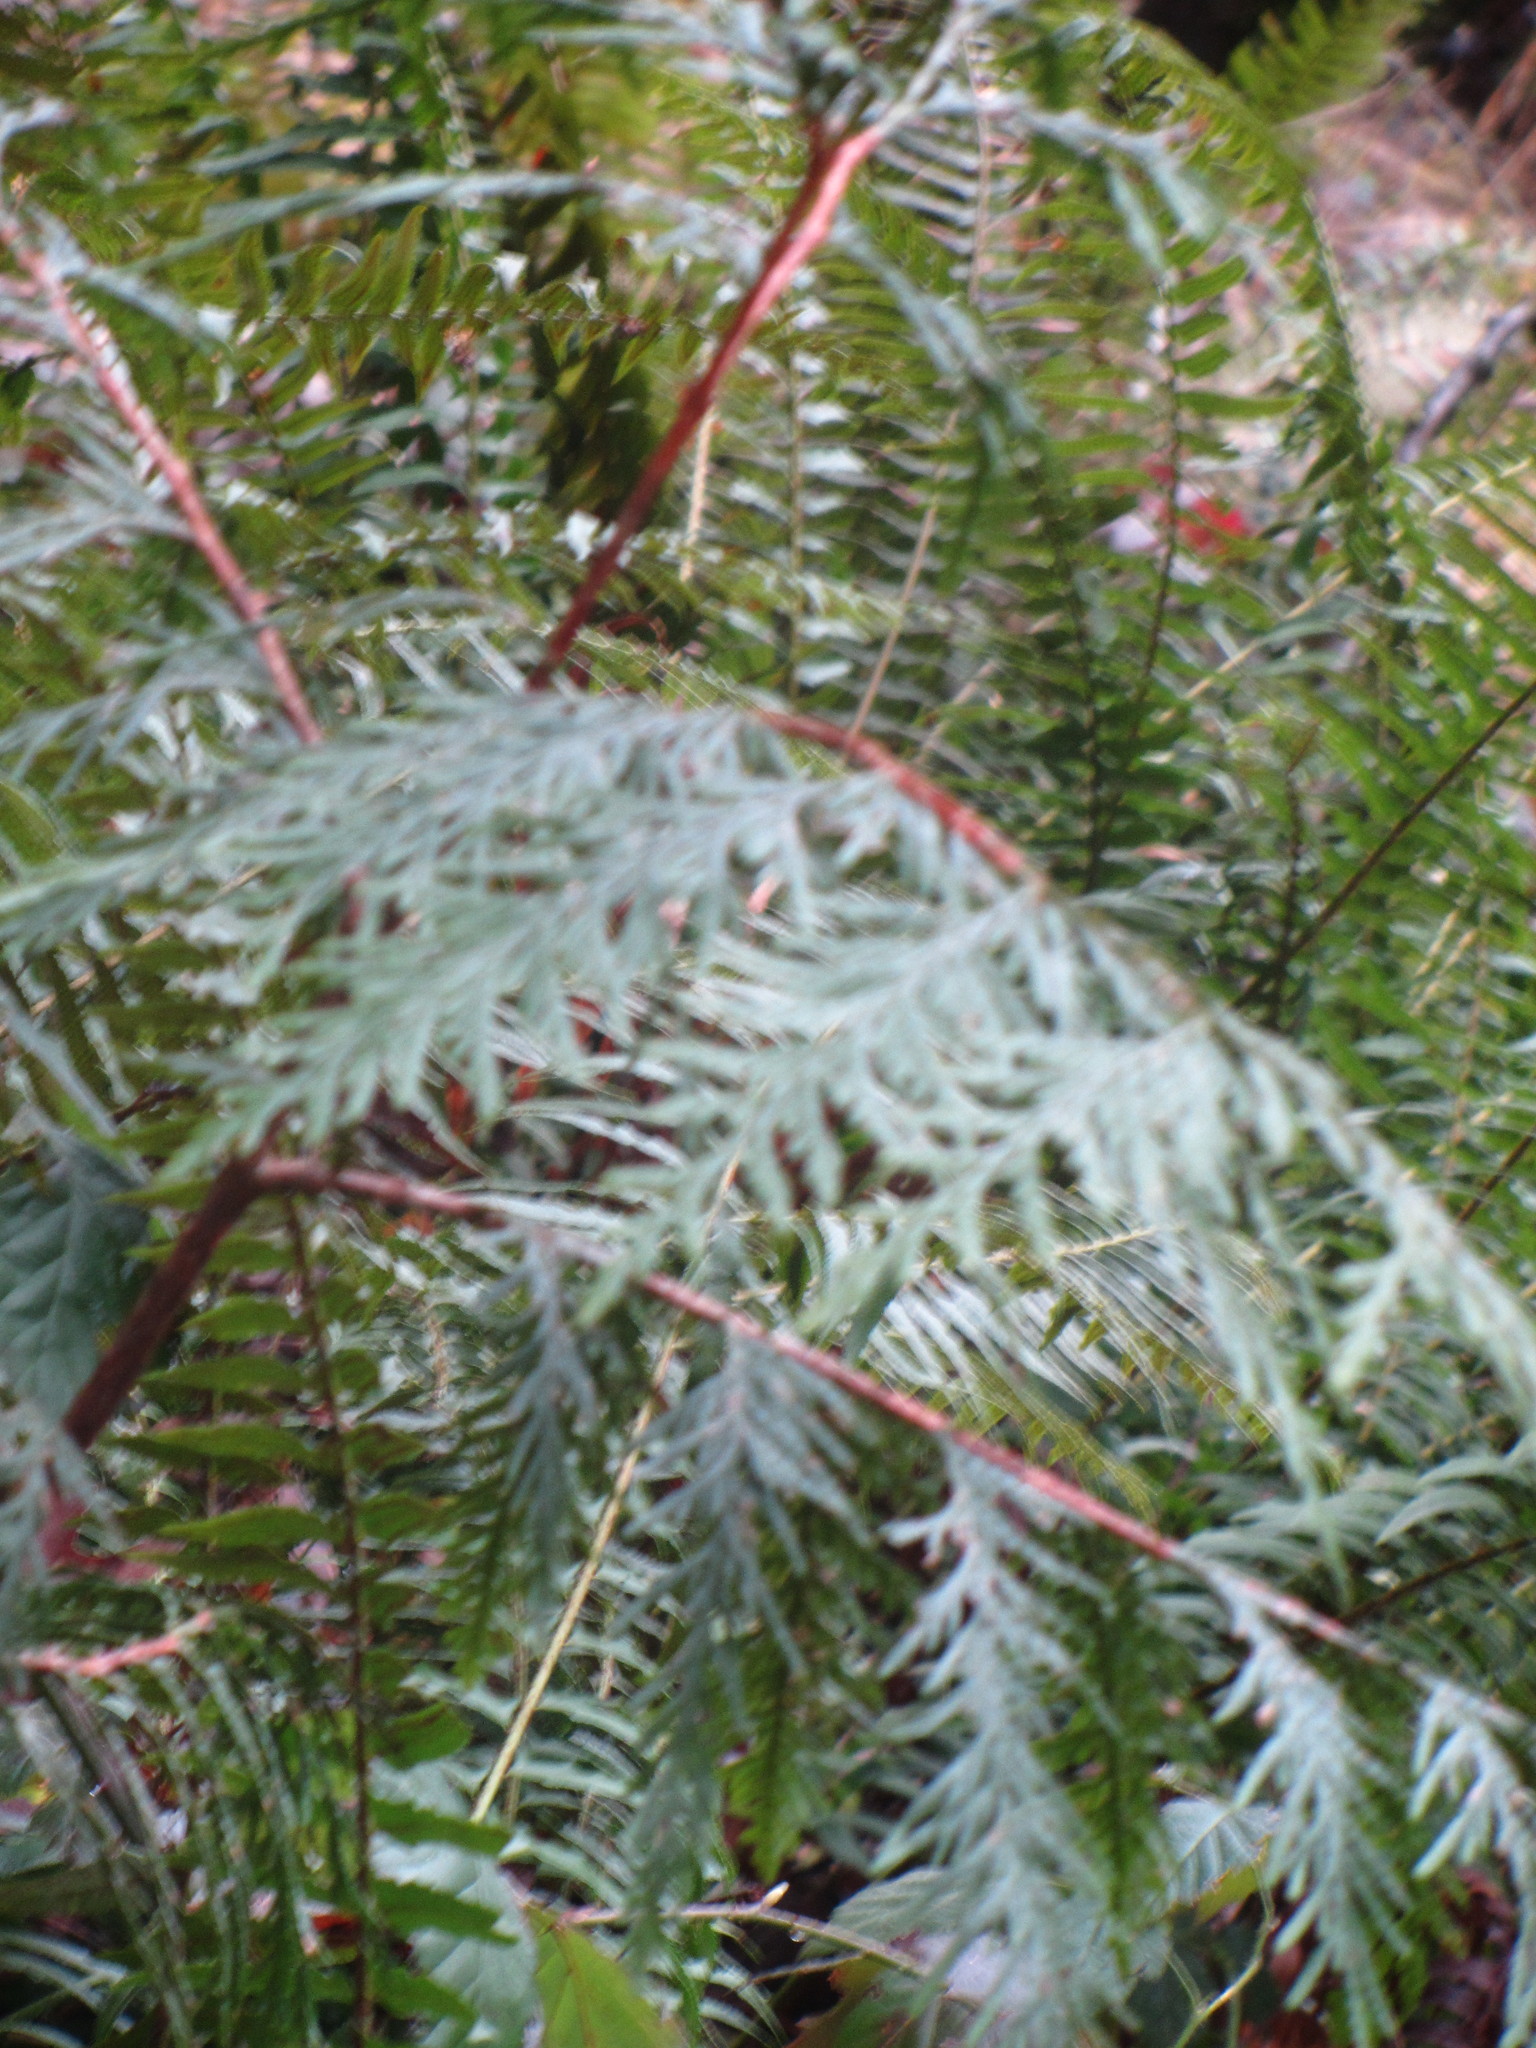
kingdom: Plantae
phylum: Tracheophyta
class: Pinopsida
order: Pinales
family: Cupressaceae
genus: Thuja
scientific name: Thuja plicata
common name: Western red-cedar
